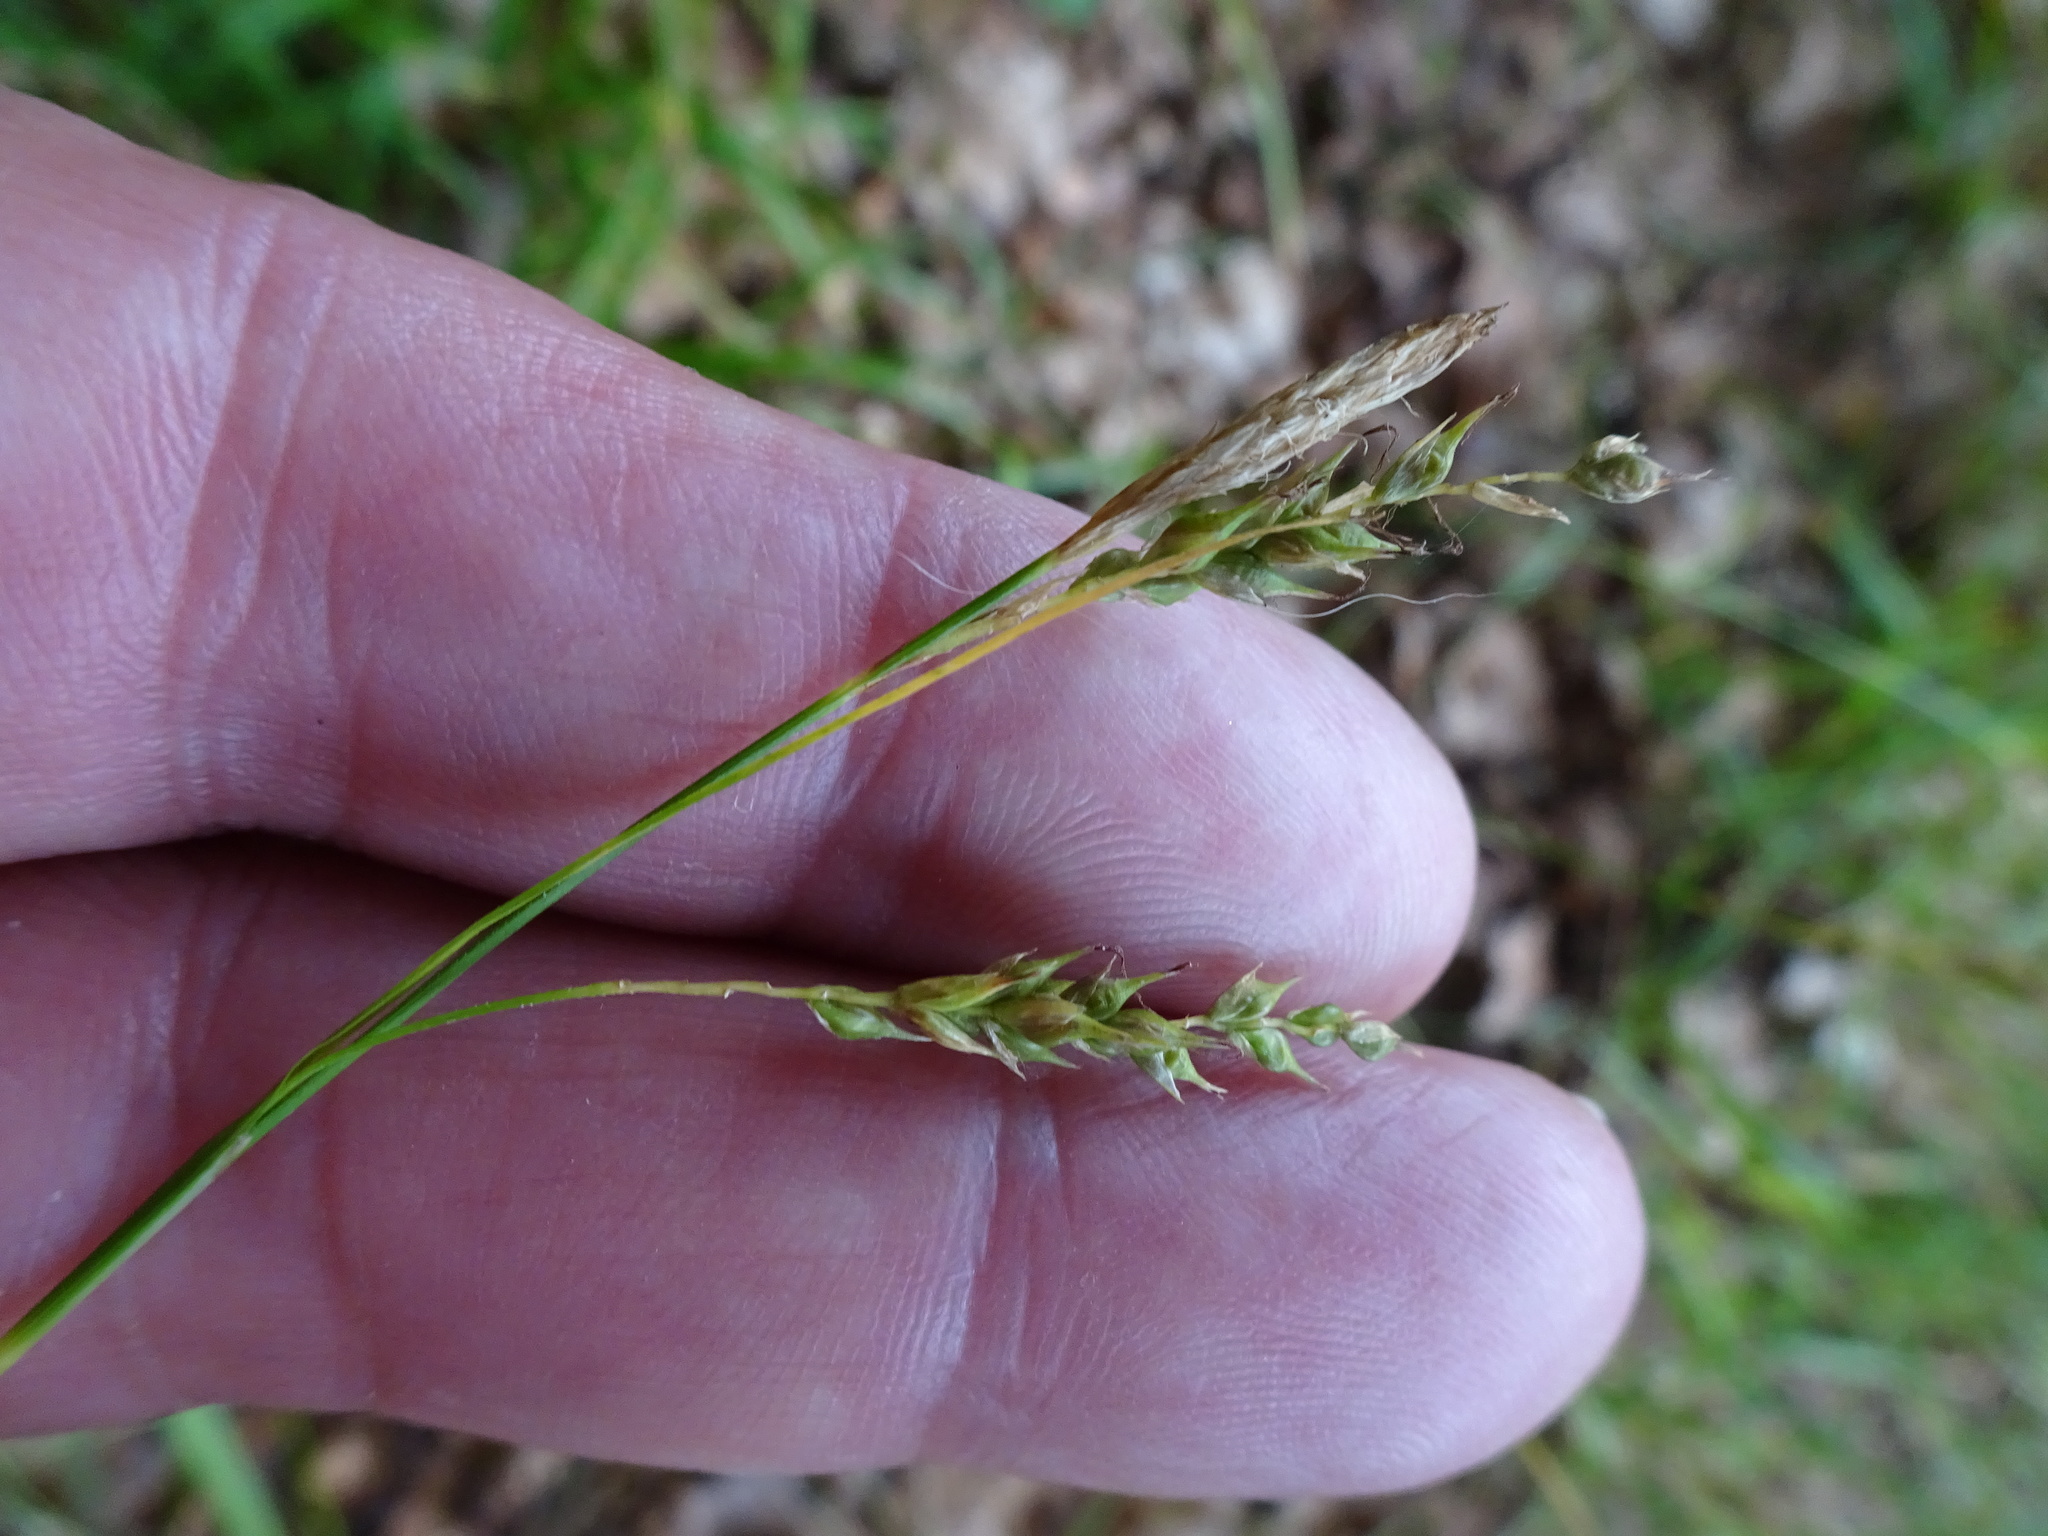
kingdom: Plantae
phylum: Tracheophyta
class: Liliopsida
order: Poales
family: Cyperaceae
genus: Carex
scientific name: Carex sylvatica
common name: Wood-sedge
